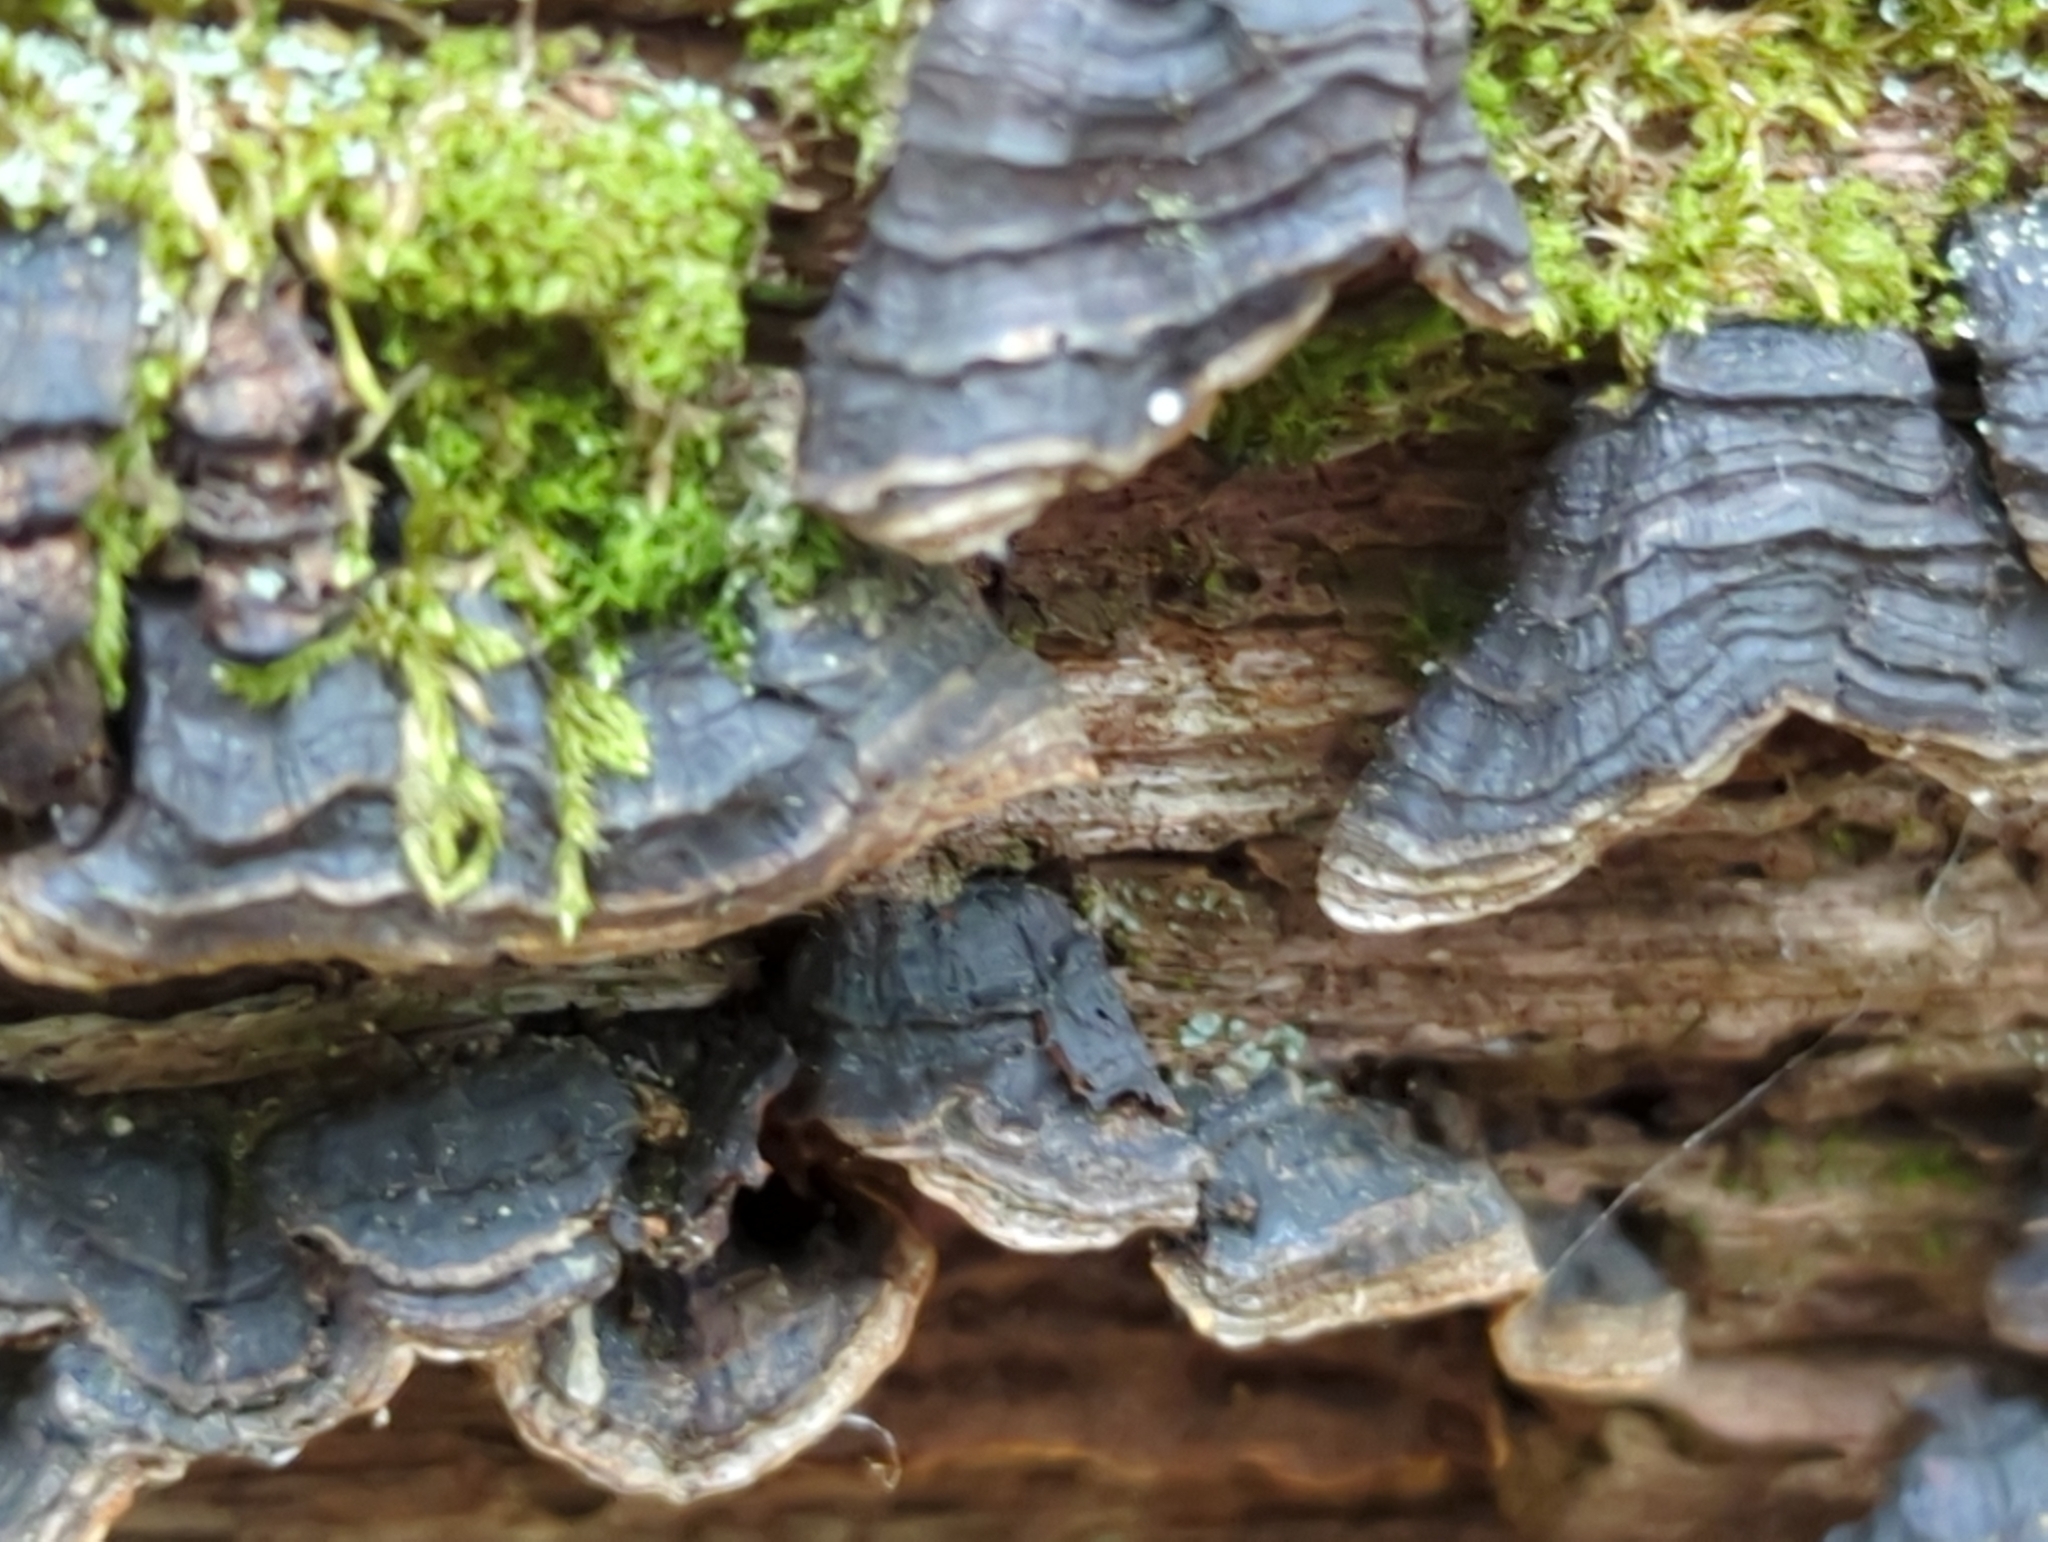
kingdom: Fungi
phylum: Basidiomycota
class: Agaricomycetes
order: Hymenochaetales
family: Hymenochaetaceae
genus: Hymenochaete
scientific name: Hymenochaete rubiginosa
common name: Oak curtain crust
